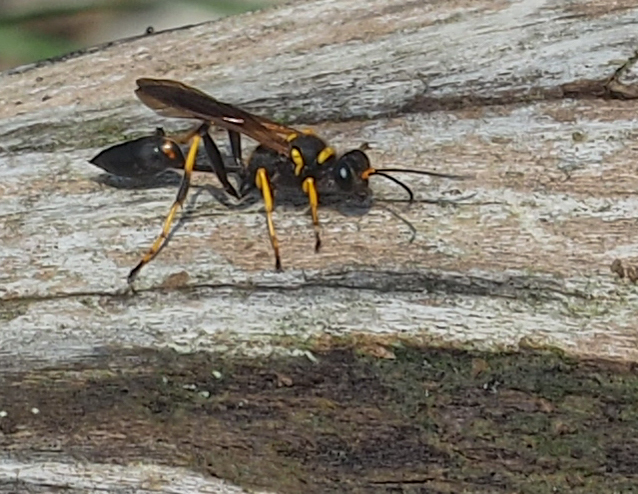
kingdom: Animalia
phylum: Arthropoda
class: Insecta
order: Hymenoptera
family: Sphecidae
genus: Sceliphron
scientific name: Sceliphron caementarium
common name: Mud dauber
